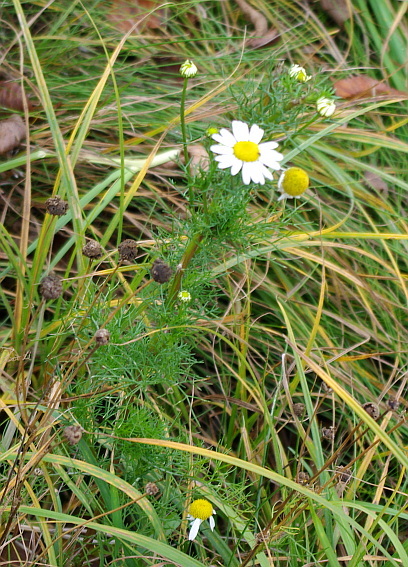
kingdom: Plantae
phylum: Tracheophyta
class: Magnoliopsida
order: Asterales
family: Asteraceae
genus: Tripleurospermum
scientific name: Tripleurospermum inodorum
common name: Scentless mayweed
